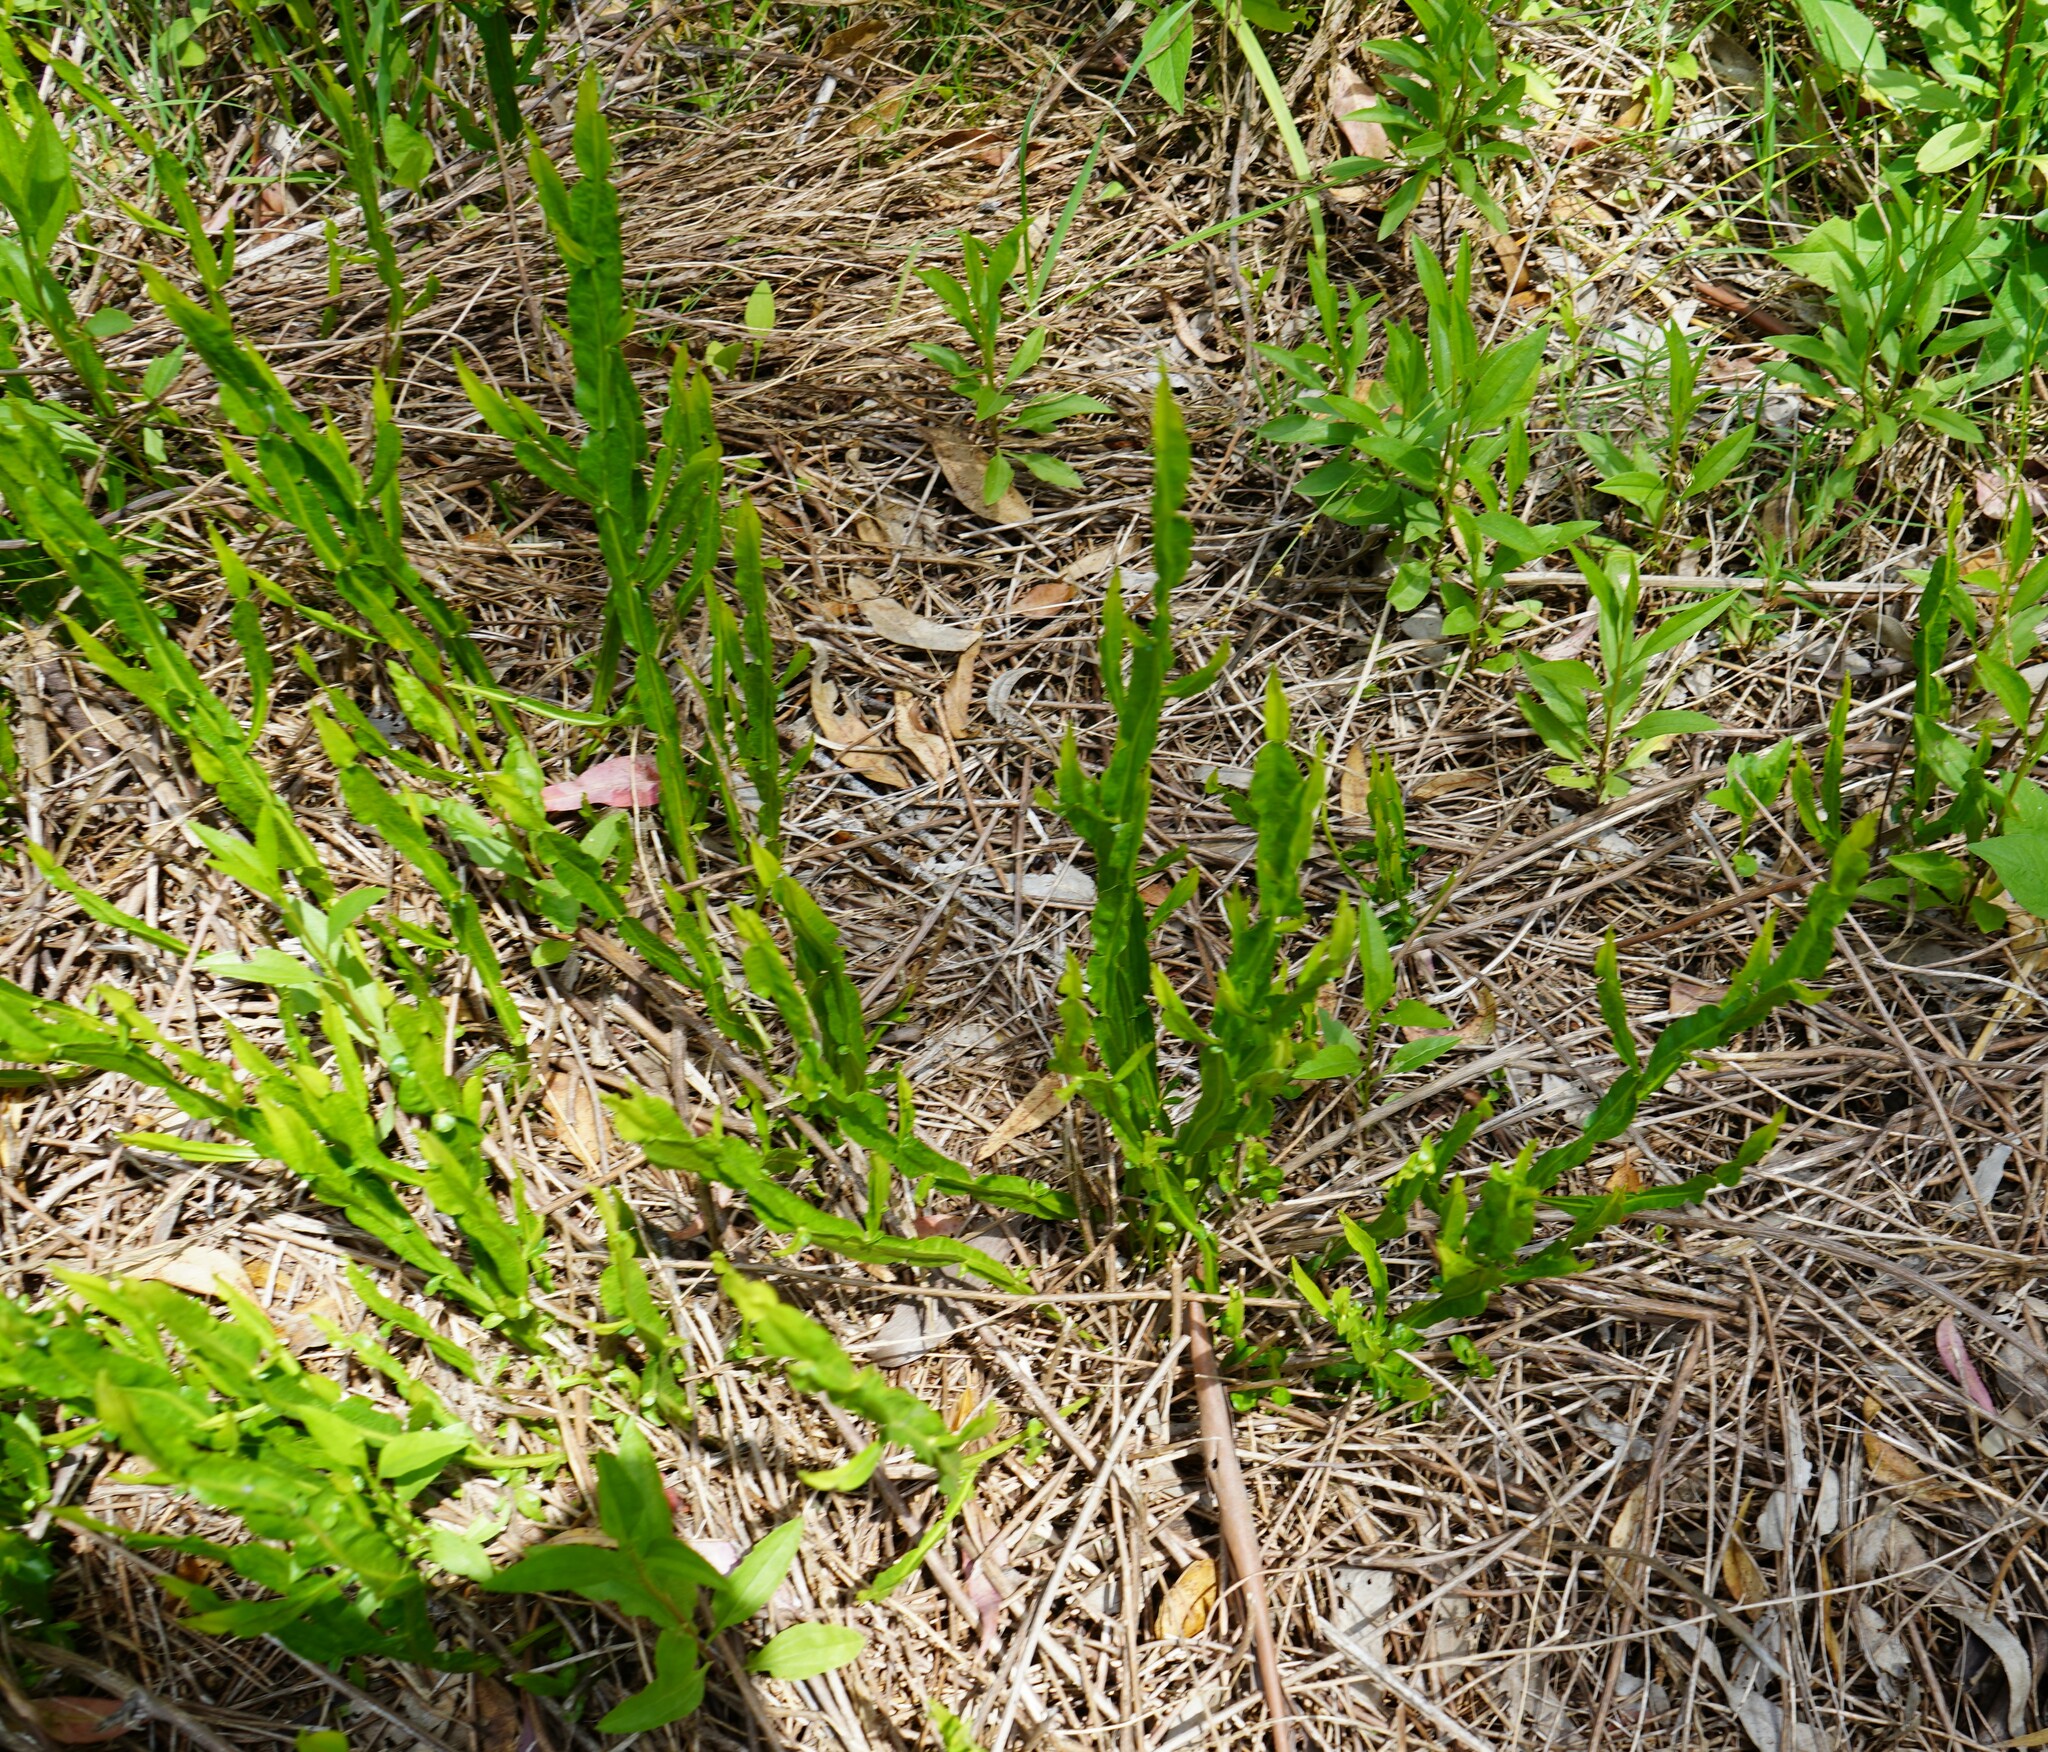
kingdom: Plantae
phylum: Tracheophyta
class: Magnoliopsida
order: Asterales
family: Asteraceae
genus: Baccharis
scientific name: Baccharis trimera
